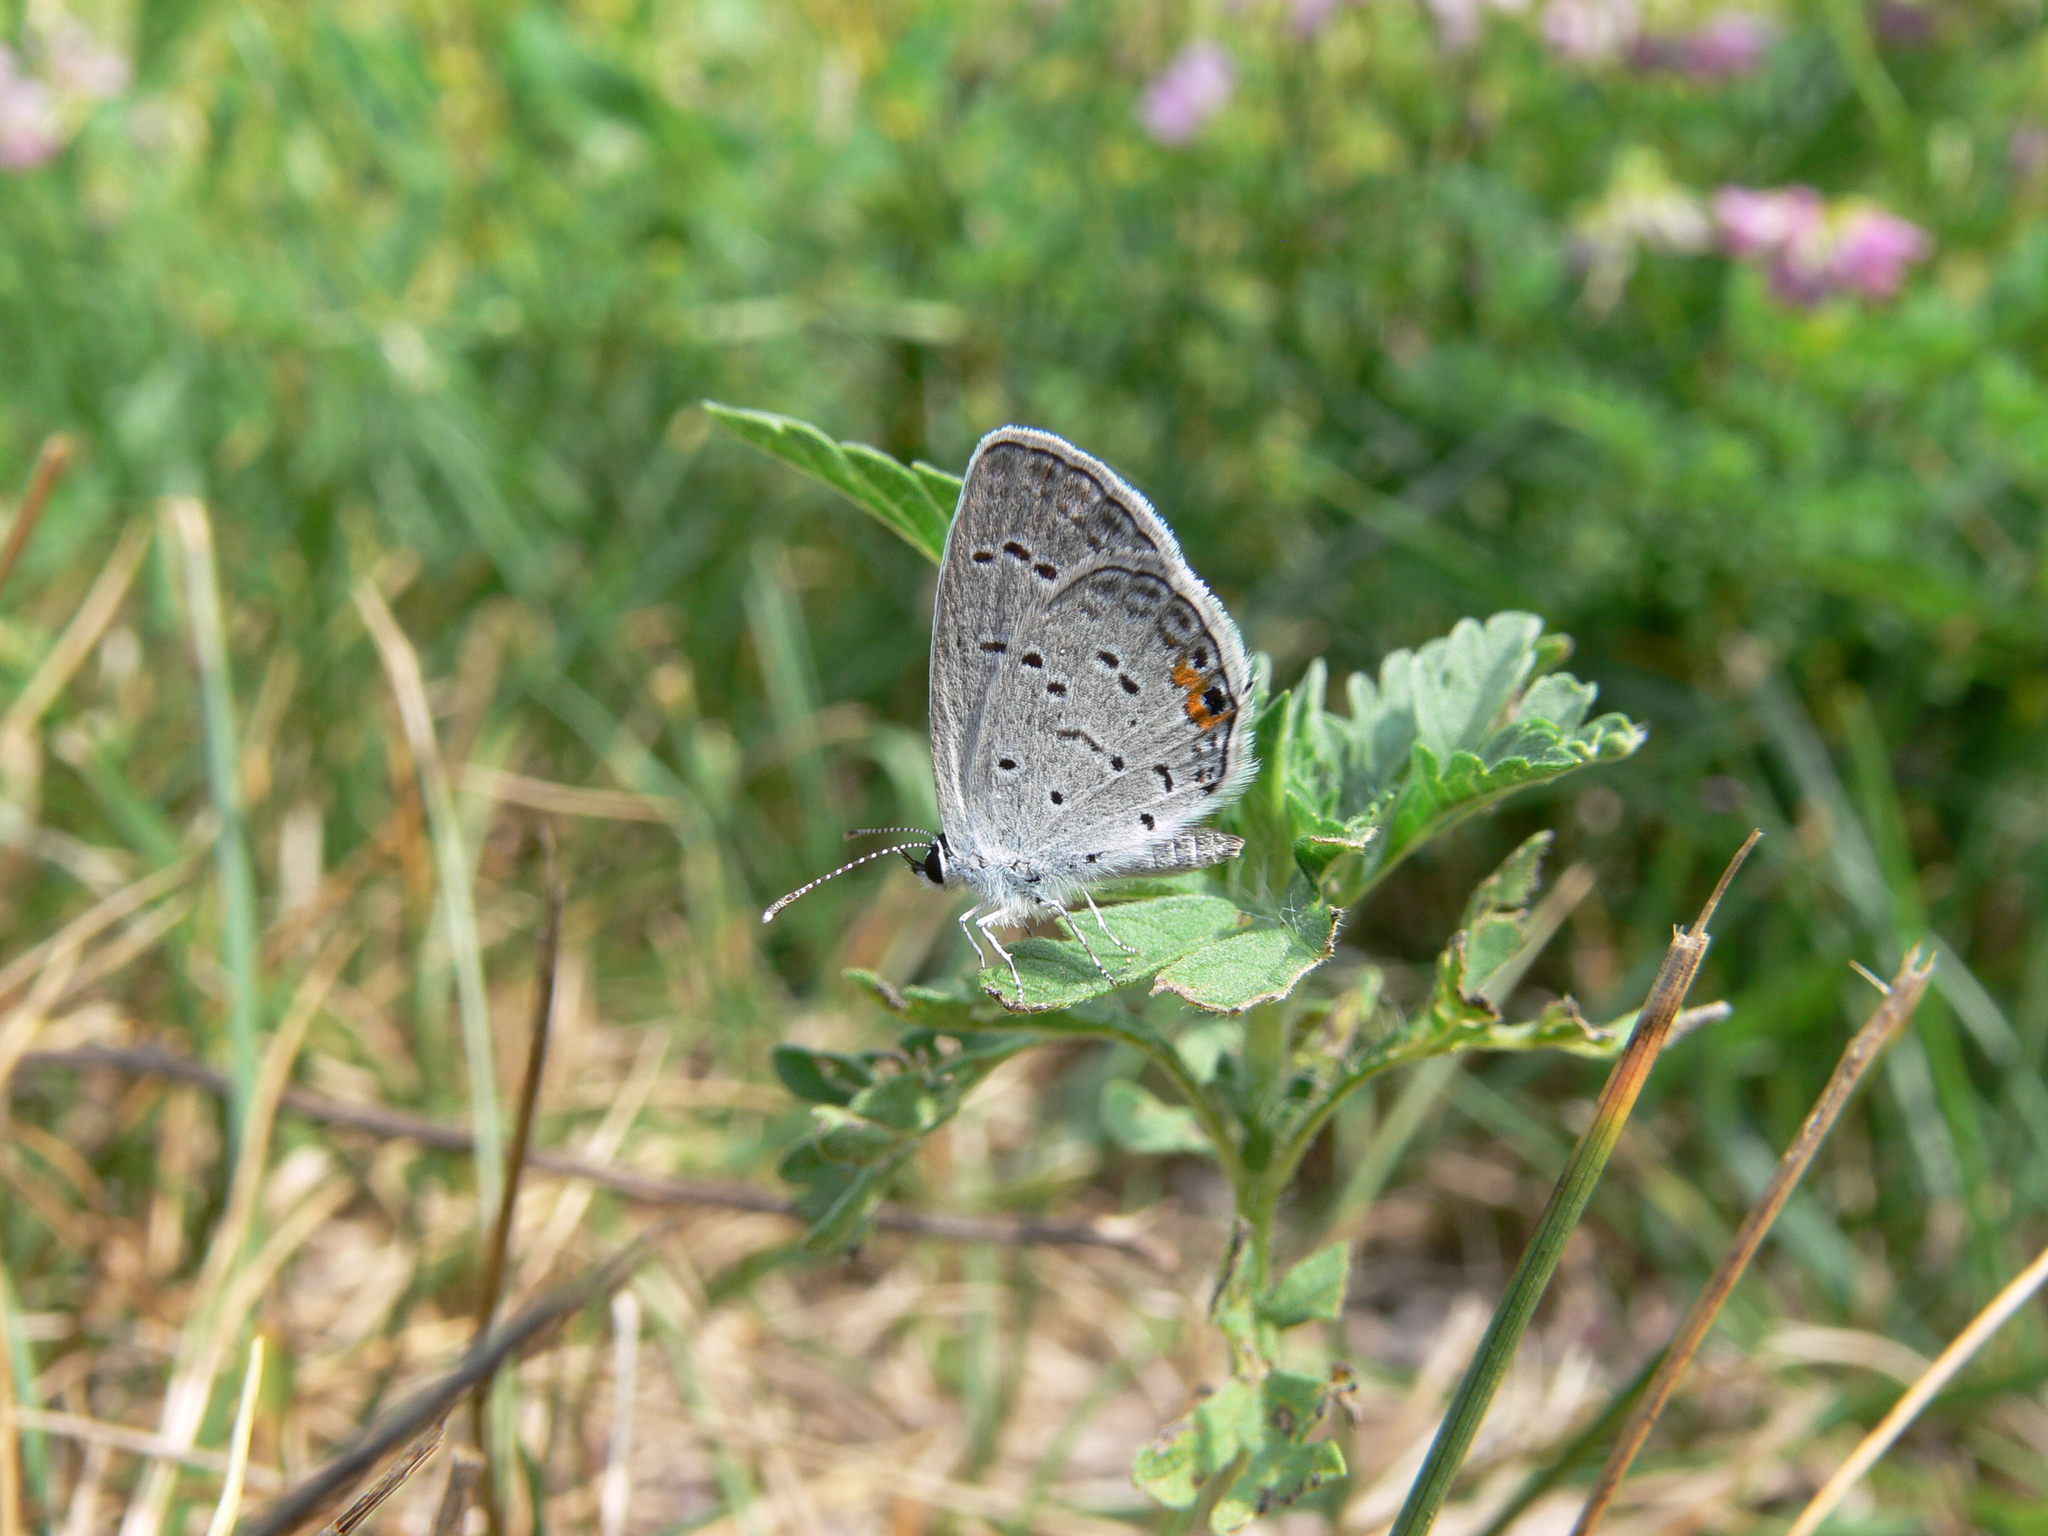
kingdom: Animalia
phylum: Arthropoda
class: Insecta
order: Lepidoptera
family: Lycaenidae
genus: Elkalyce
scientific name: Elkalyce comyntas
